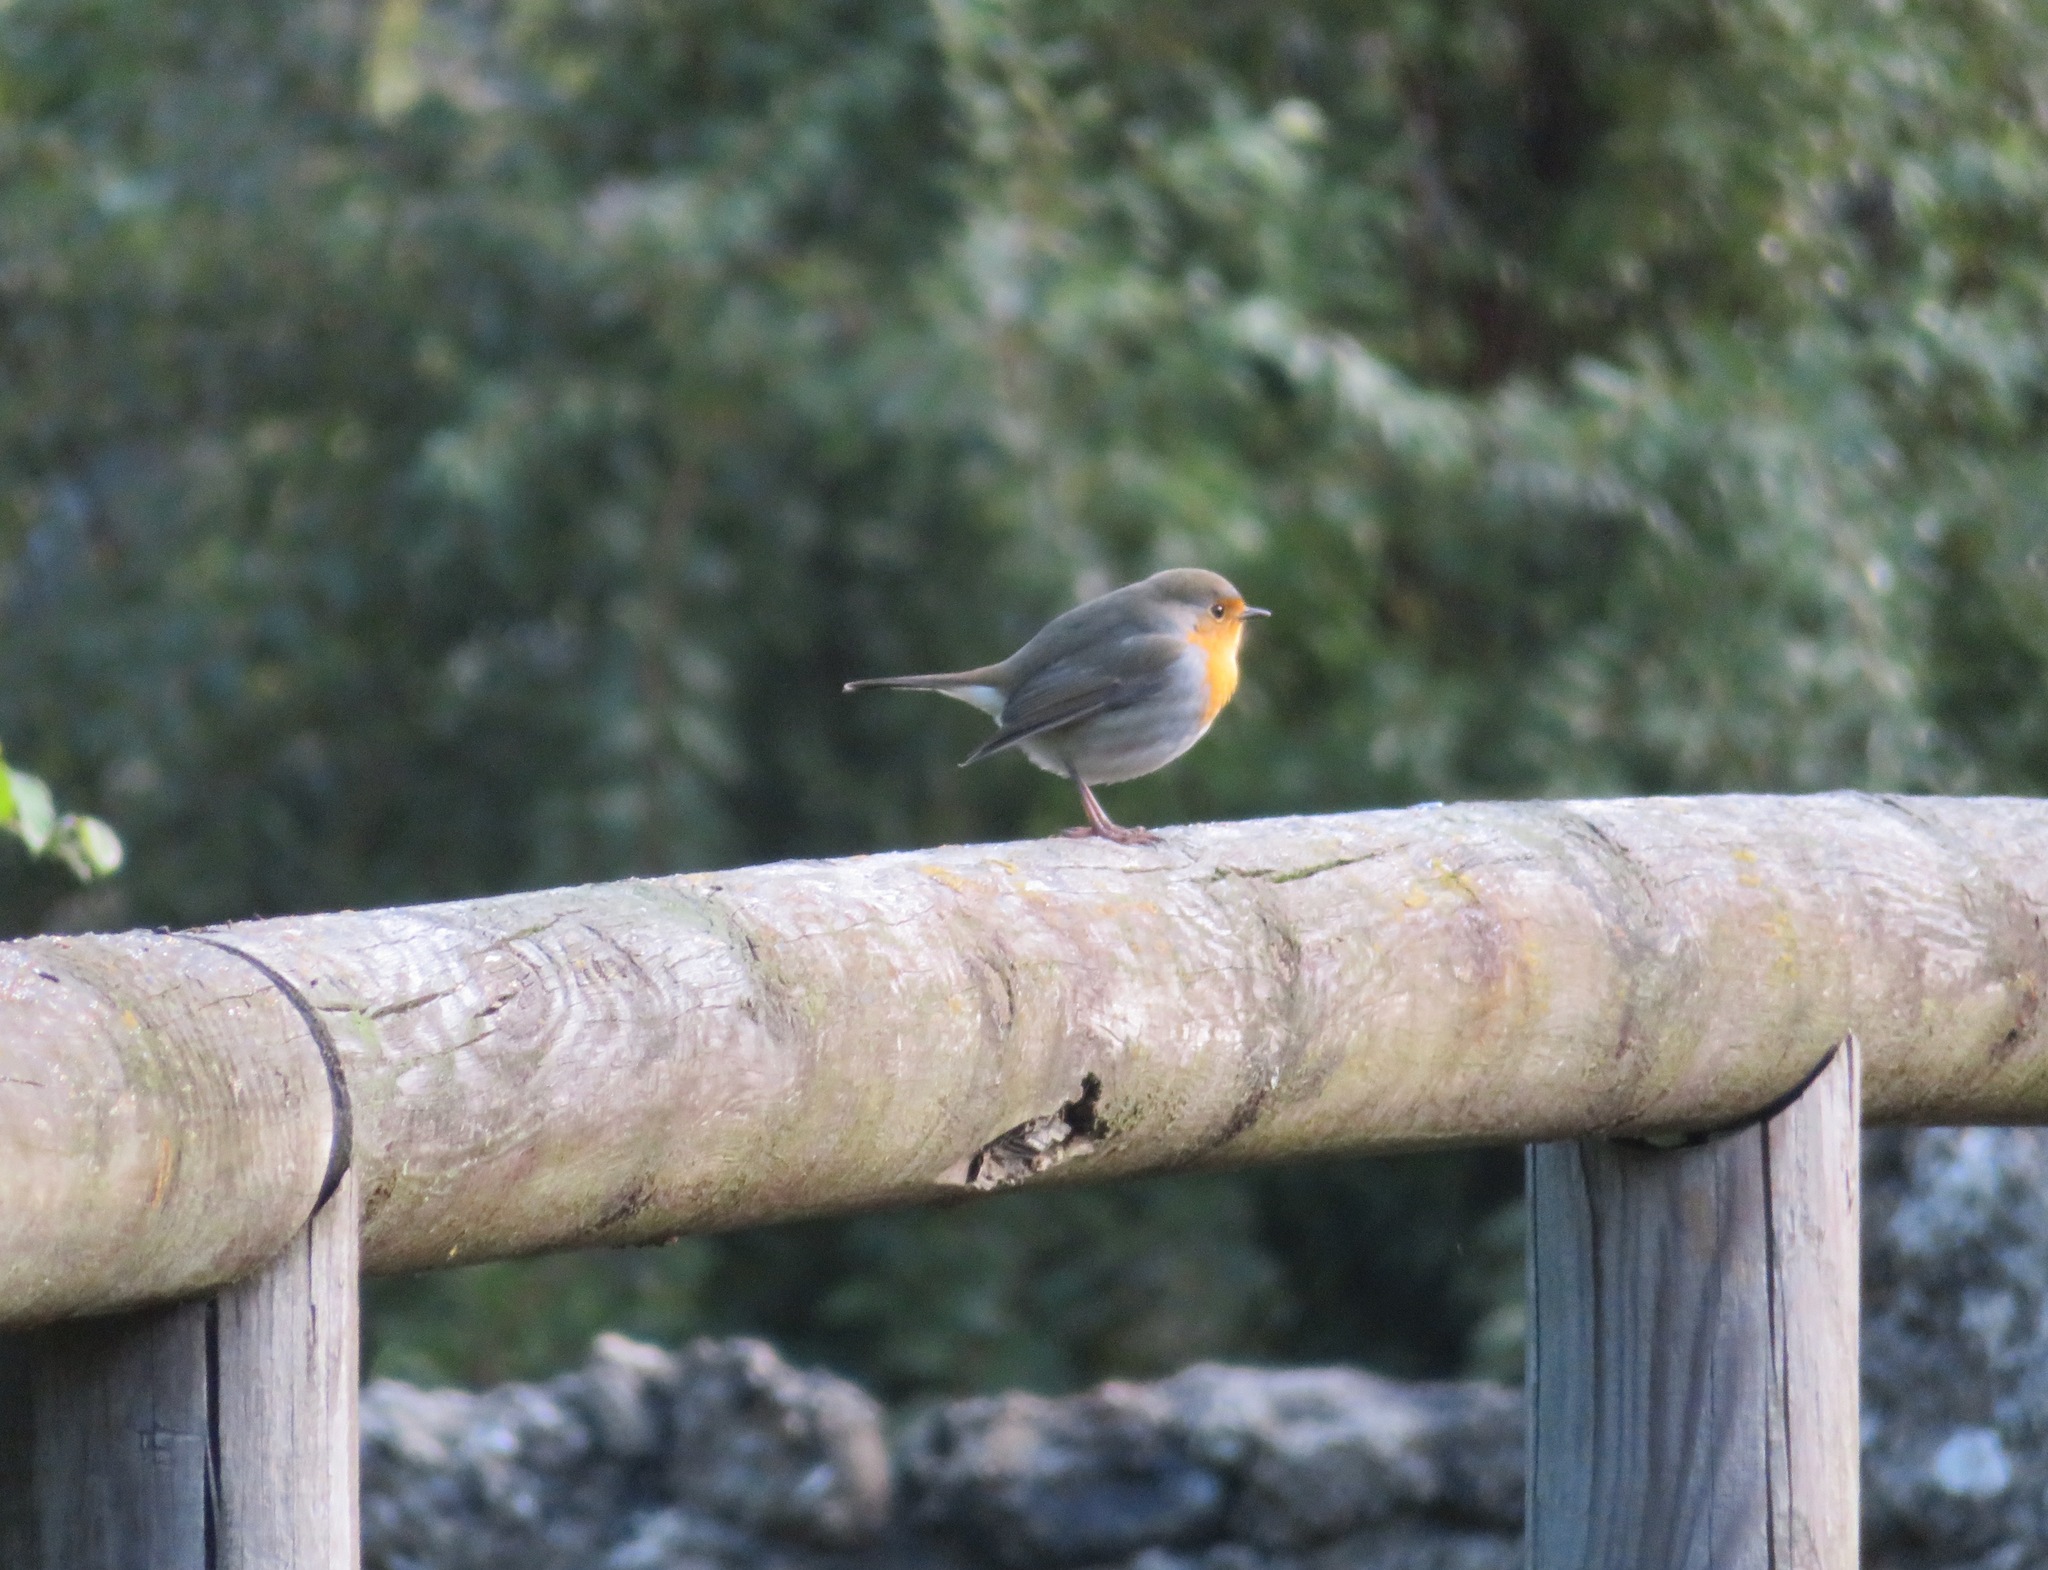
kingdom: Animalia
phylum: Chordata
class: Aves
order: Passeriformes
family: Muscicapidae
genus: Erithacus
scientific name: Erithacus rubecula
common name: European robin
